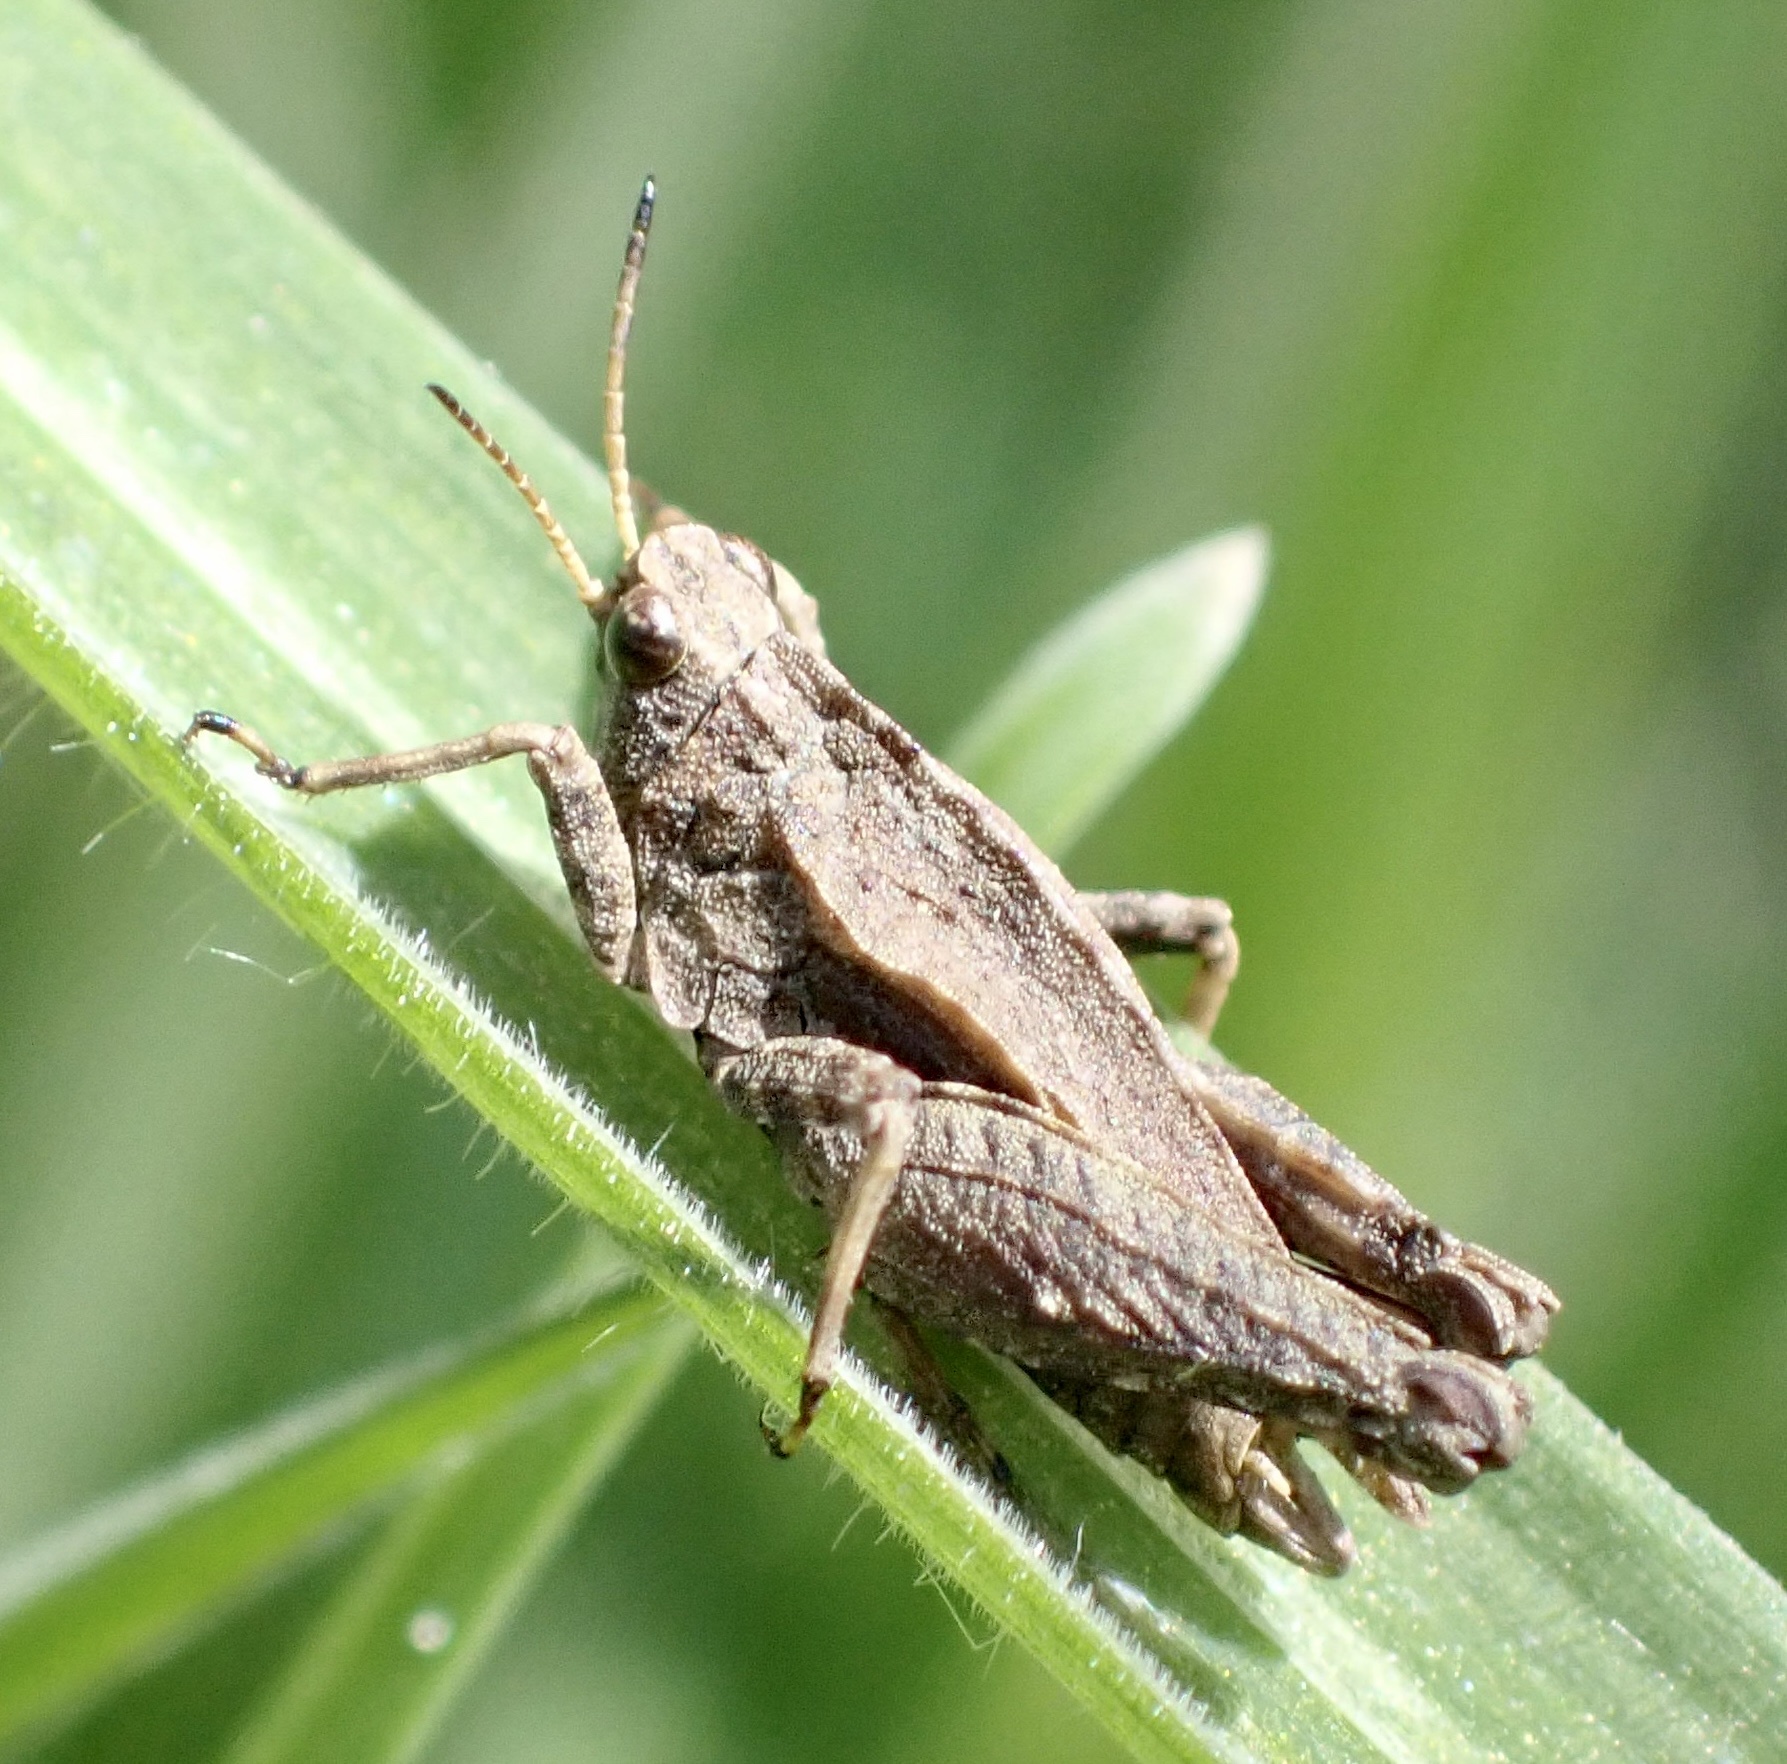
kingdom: Animalia
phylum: Arthropoda
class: Insecta
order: Orthoptera
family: Tetrigidae
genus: Tetrix
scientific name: Tetrix undulata
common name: Common groundhopper
